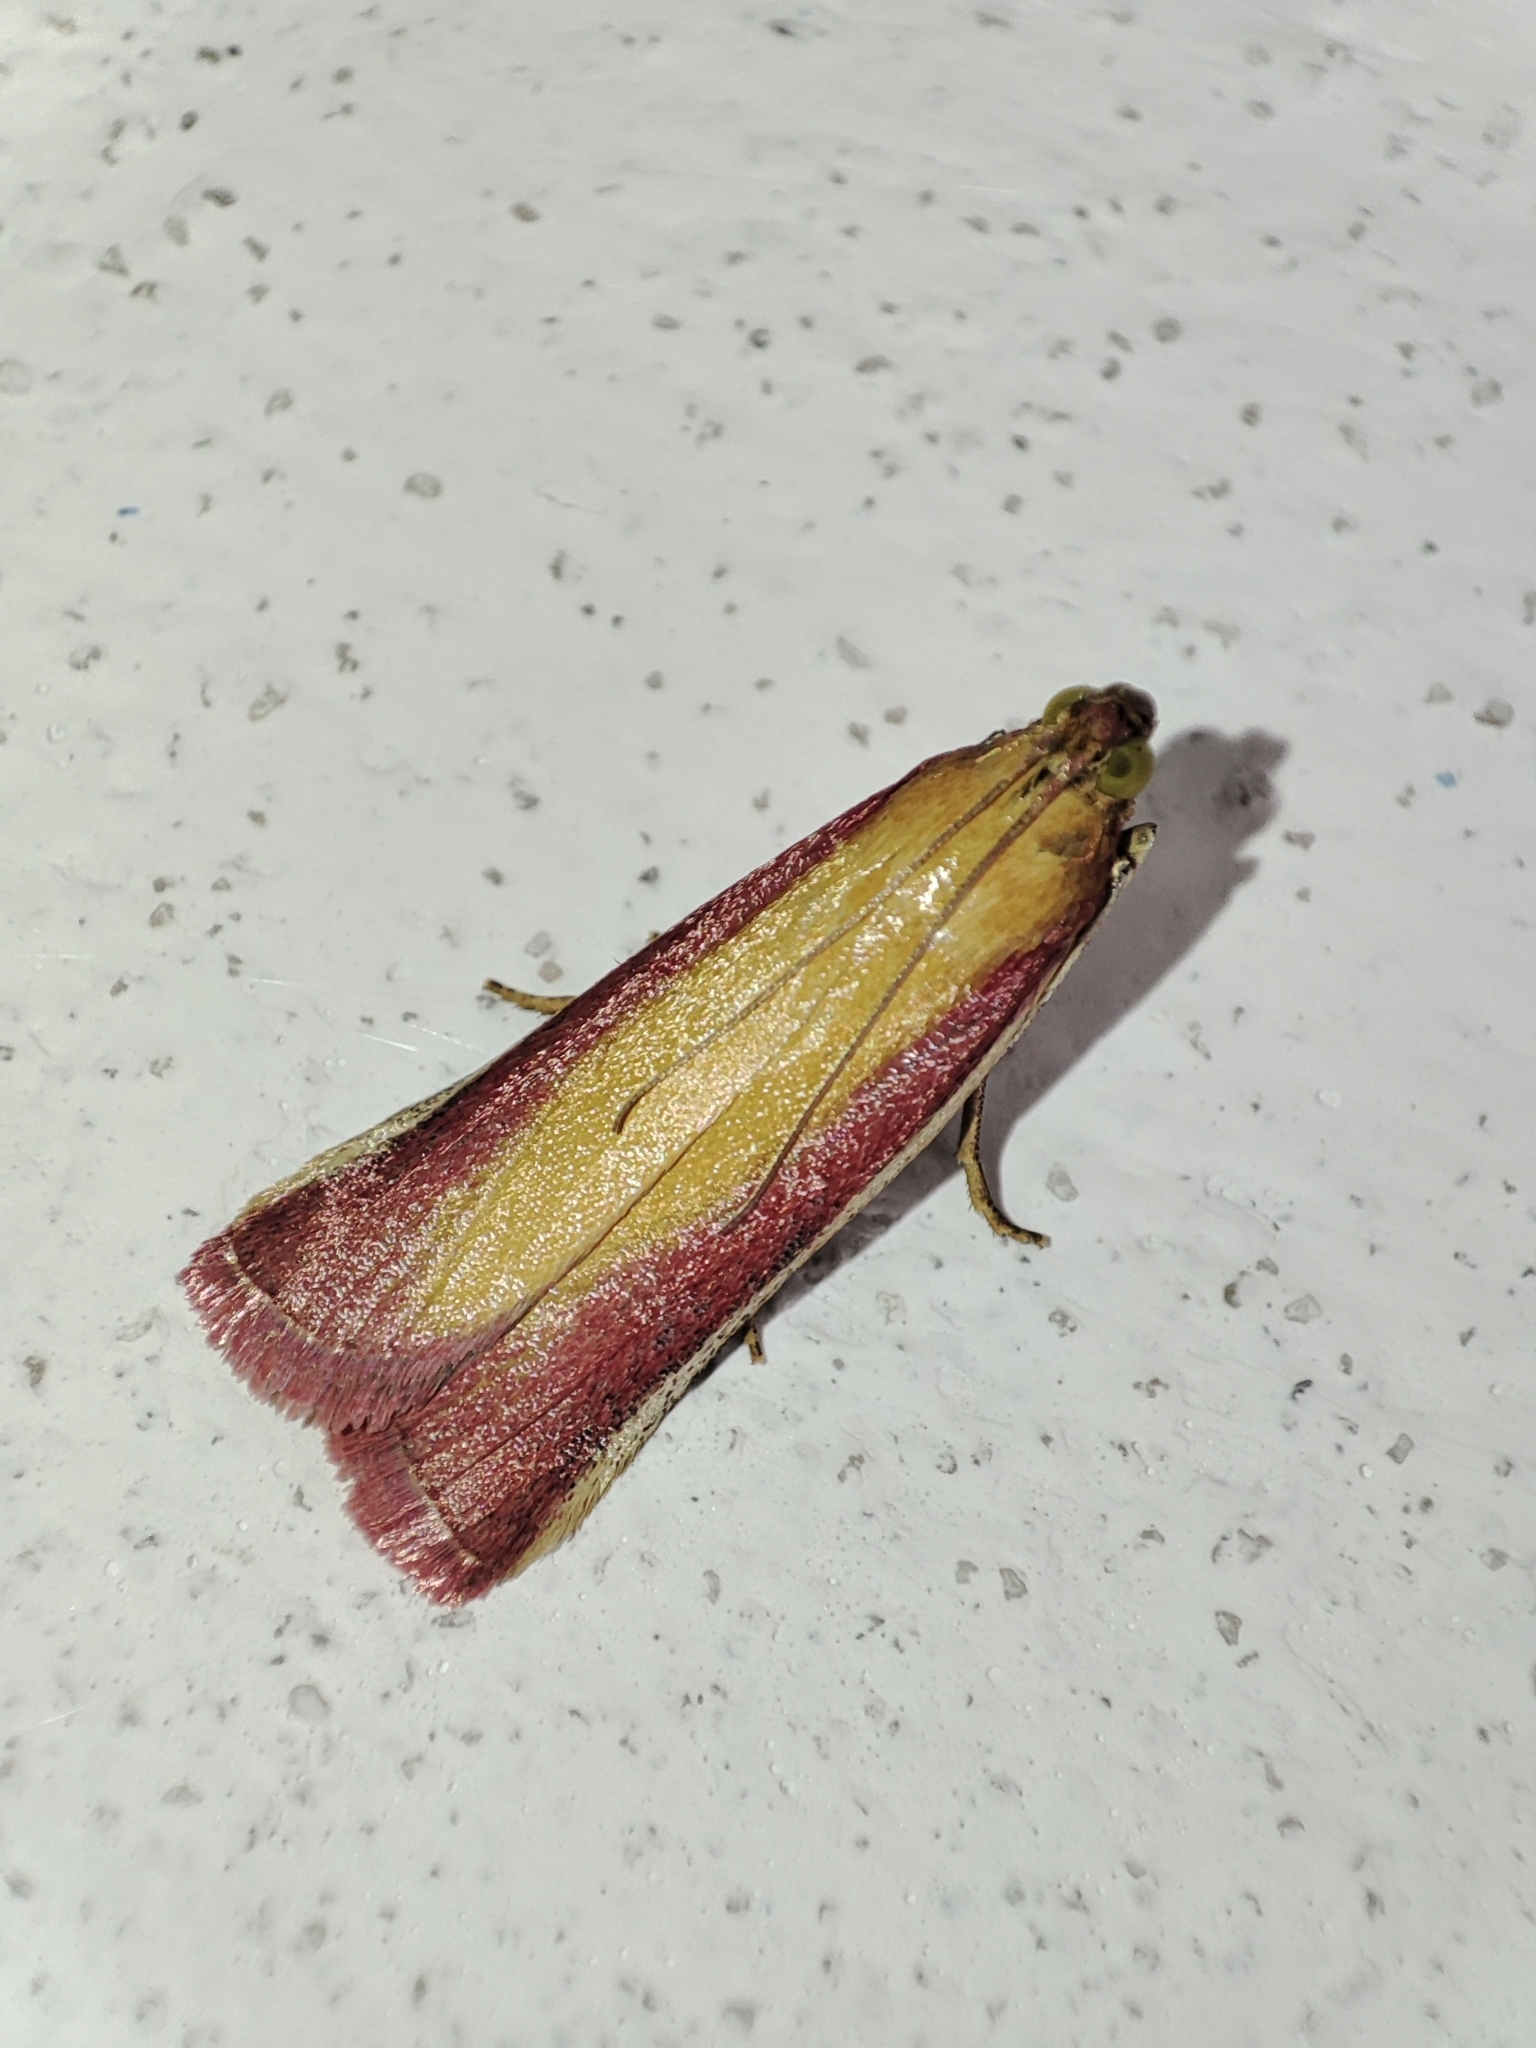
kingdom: Animalia
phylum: Arthropoda
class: Insecta
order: Lepidoptera
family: Pyralidae
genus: Oncocera
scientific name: Oncocera semirubella
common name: Rosy-striped knot-horn
